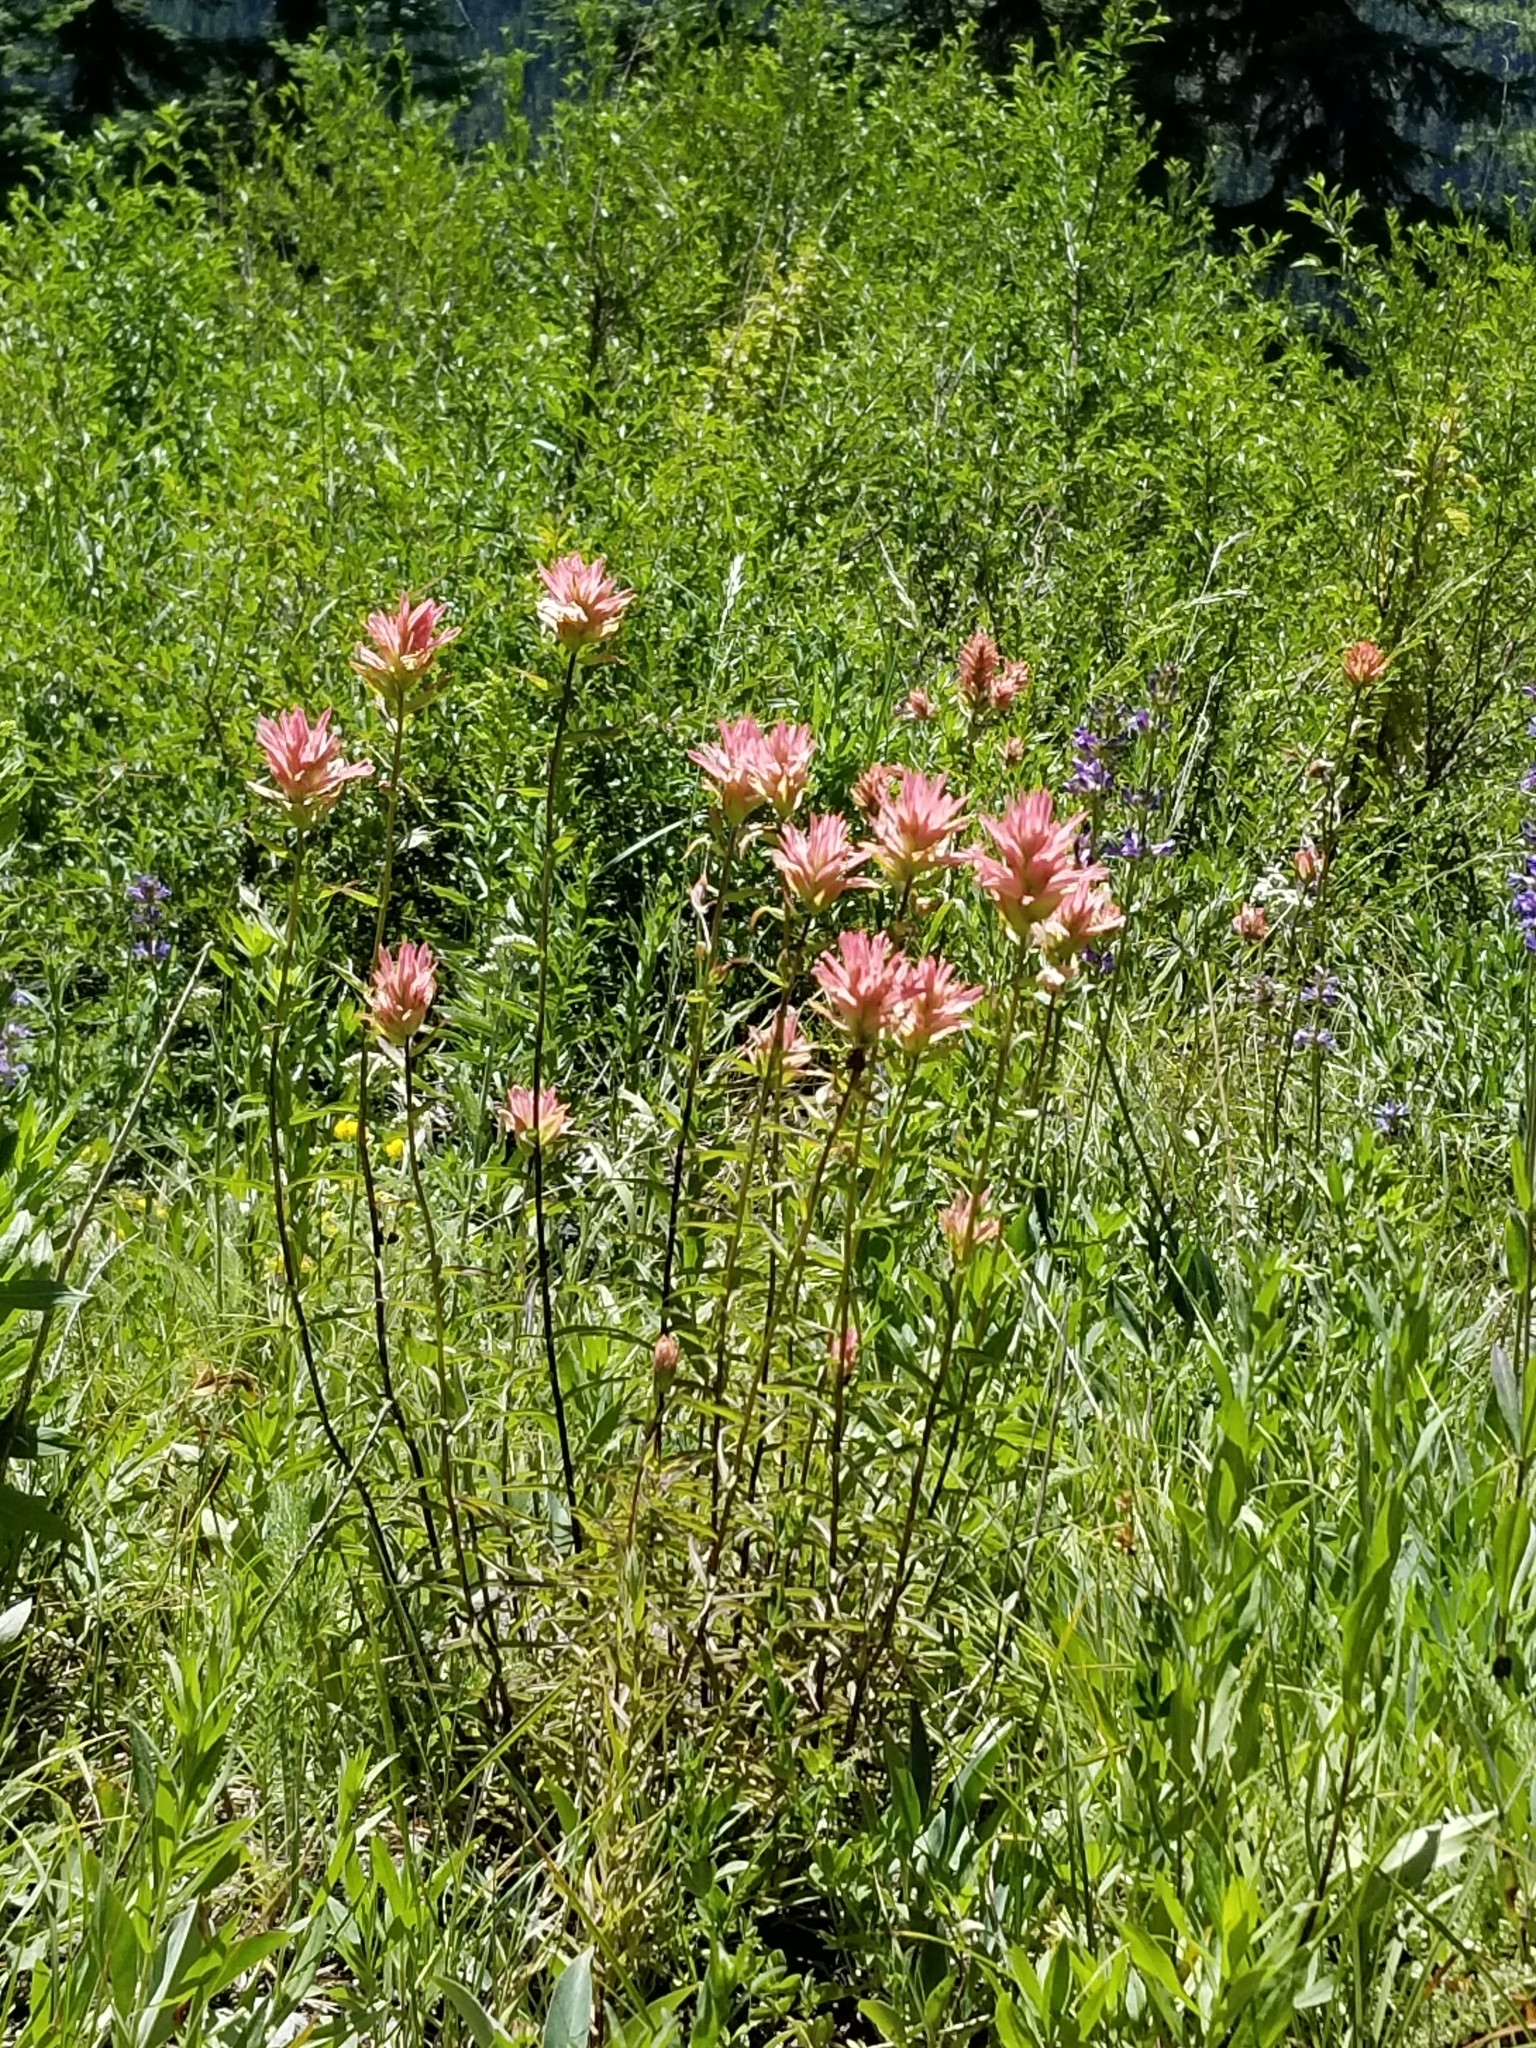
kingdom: Plantae
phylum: Tracheophyta
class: Magnoliopsida
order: Lamiales
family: Orobanchaceae
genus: Castilleja
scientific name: Castilleja miniata
